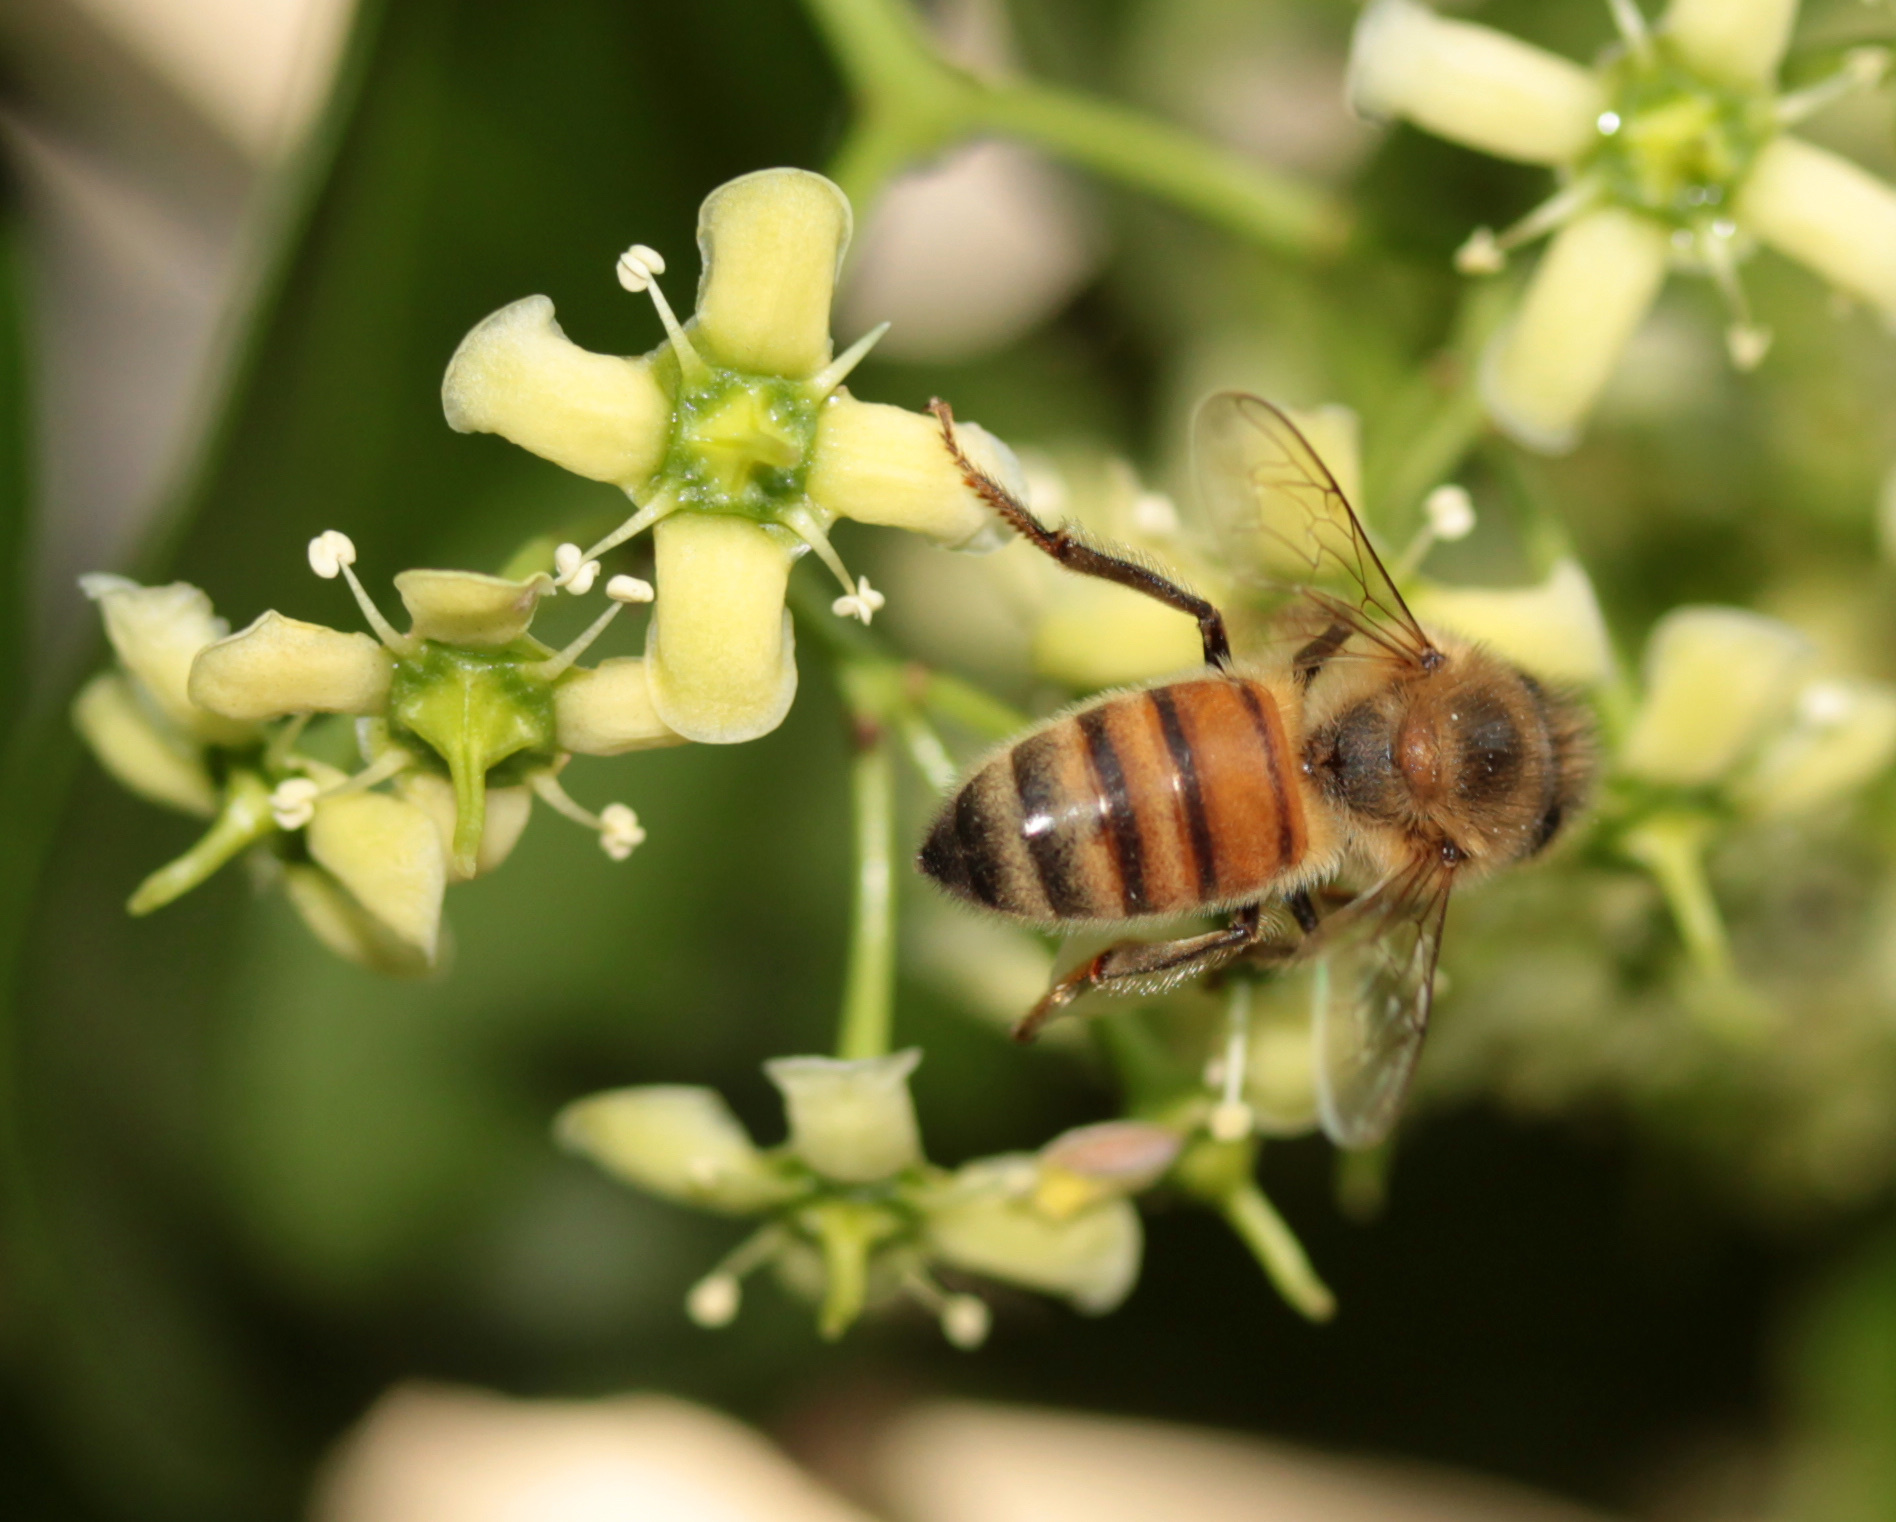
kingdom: Animalia
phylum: Arthropoda
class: Insecta
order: Hymenoptera
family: Apidae
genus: Apis
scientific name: Apis mellifera
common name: Honey bee
